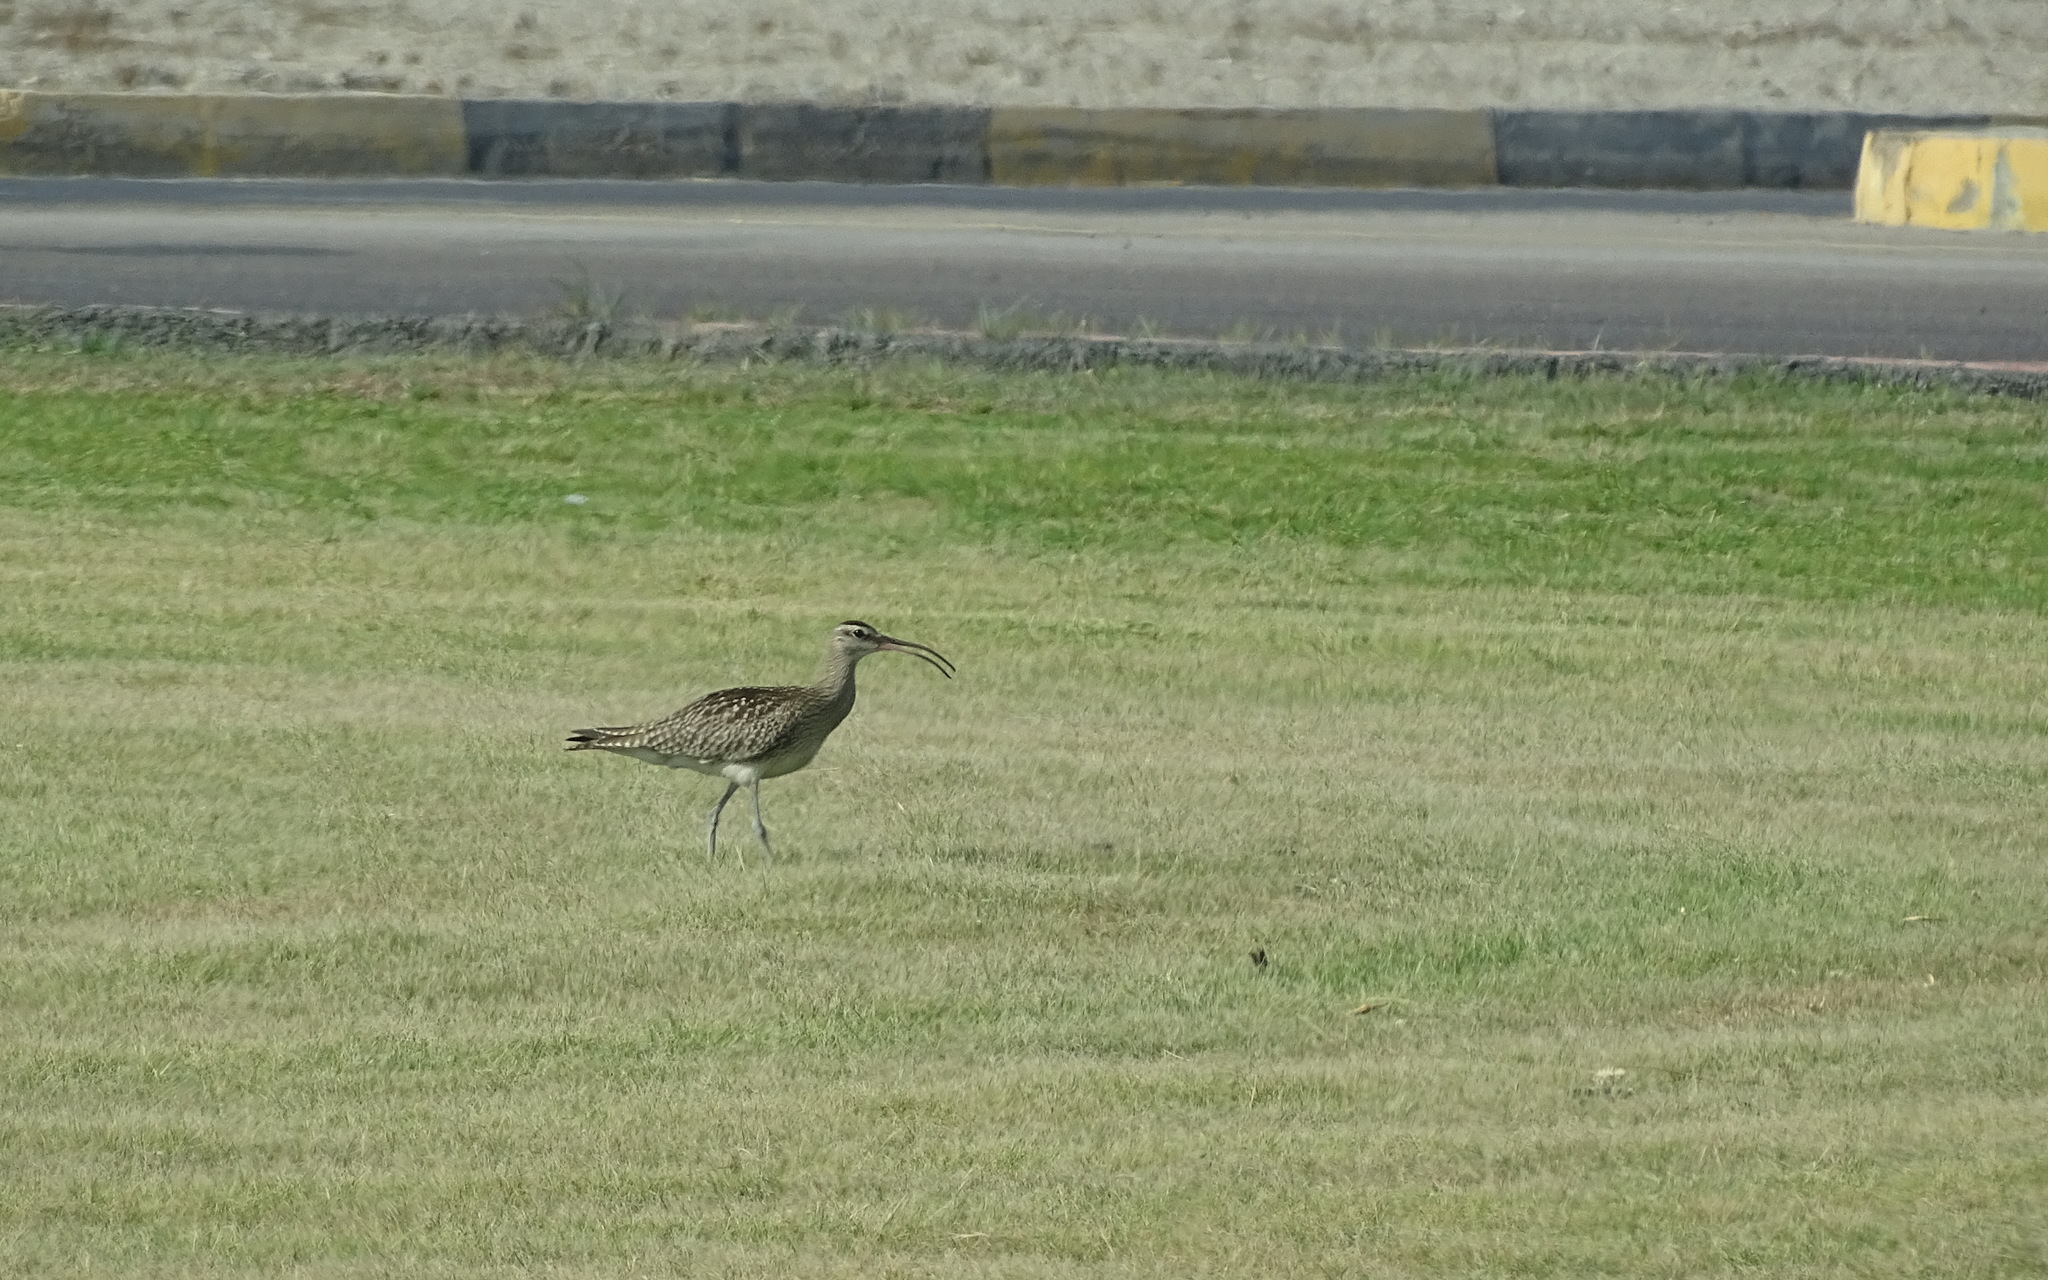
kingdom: Animalia
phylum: Chordata
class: Aves
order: Charadriiformes
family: Scolopacidae
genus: Numenius
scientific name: Numenius phaeopus
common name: Whimbrel
